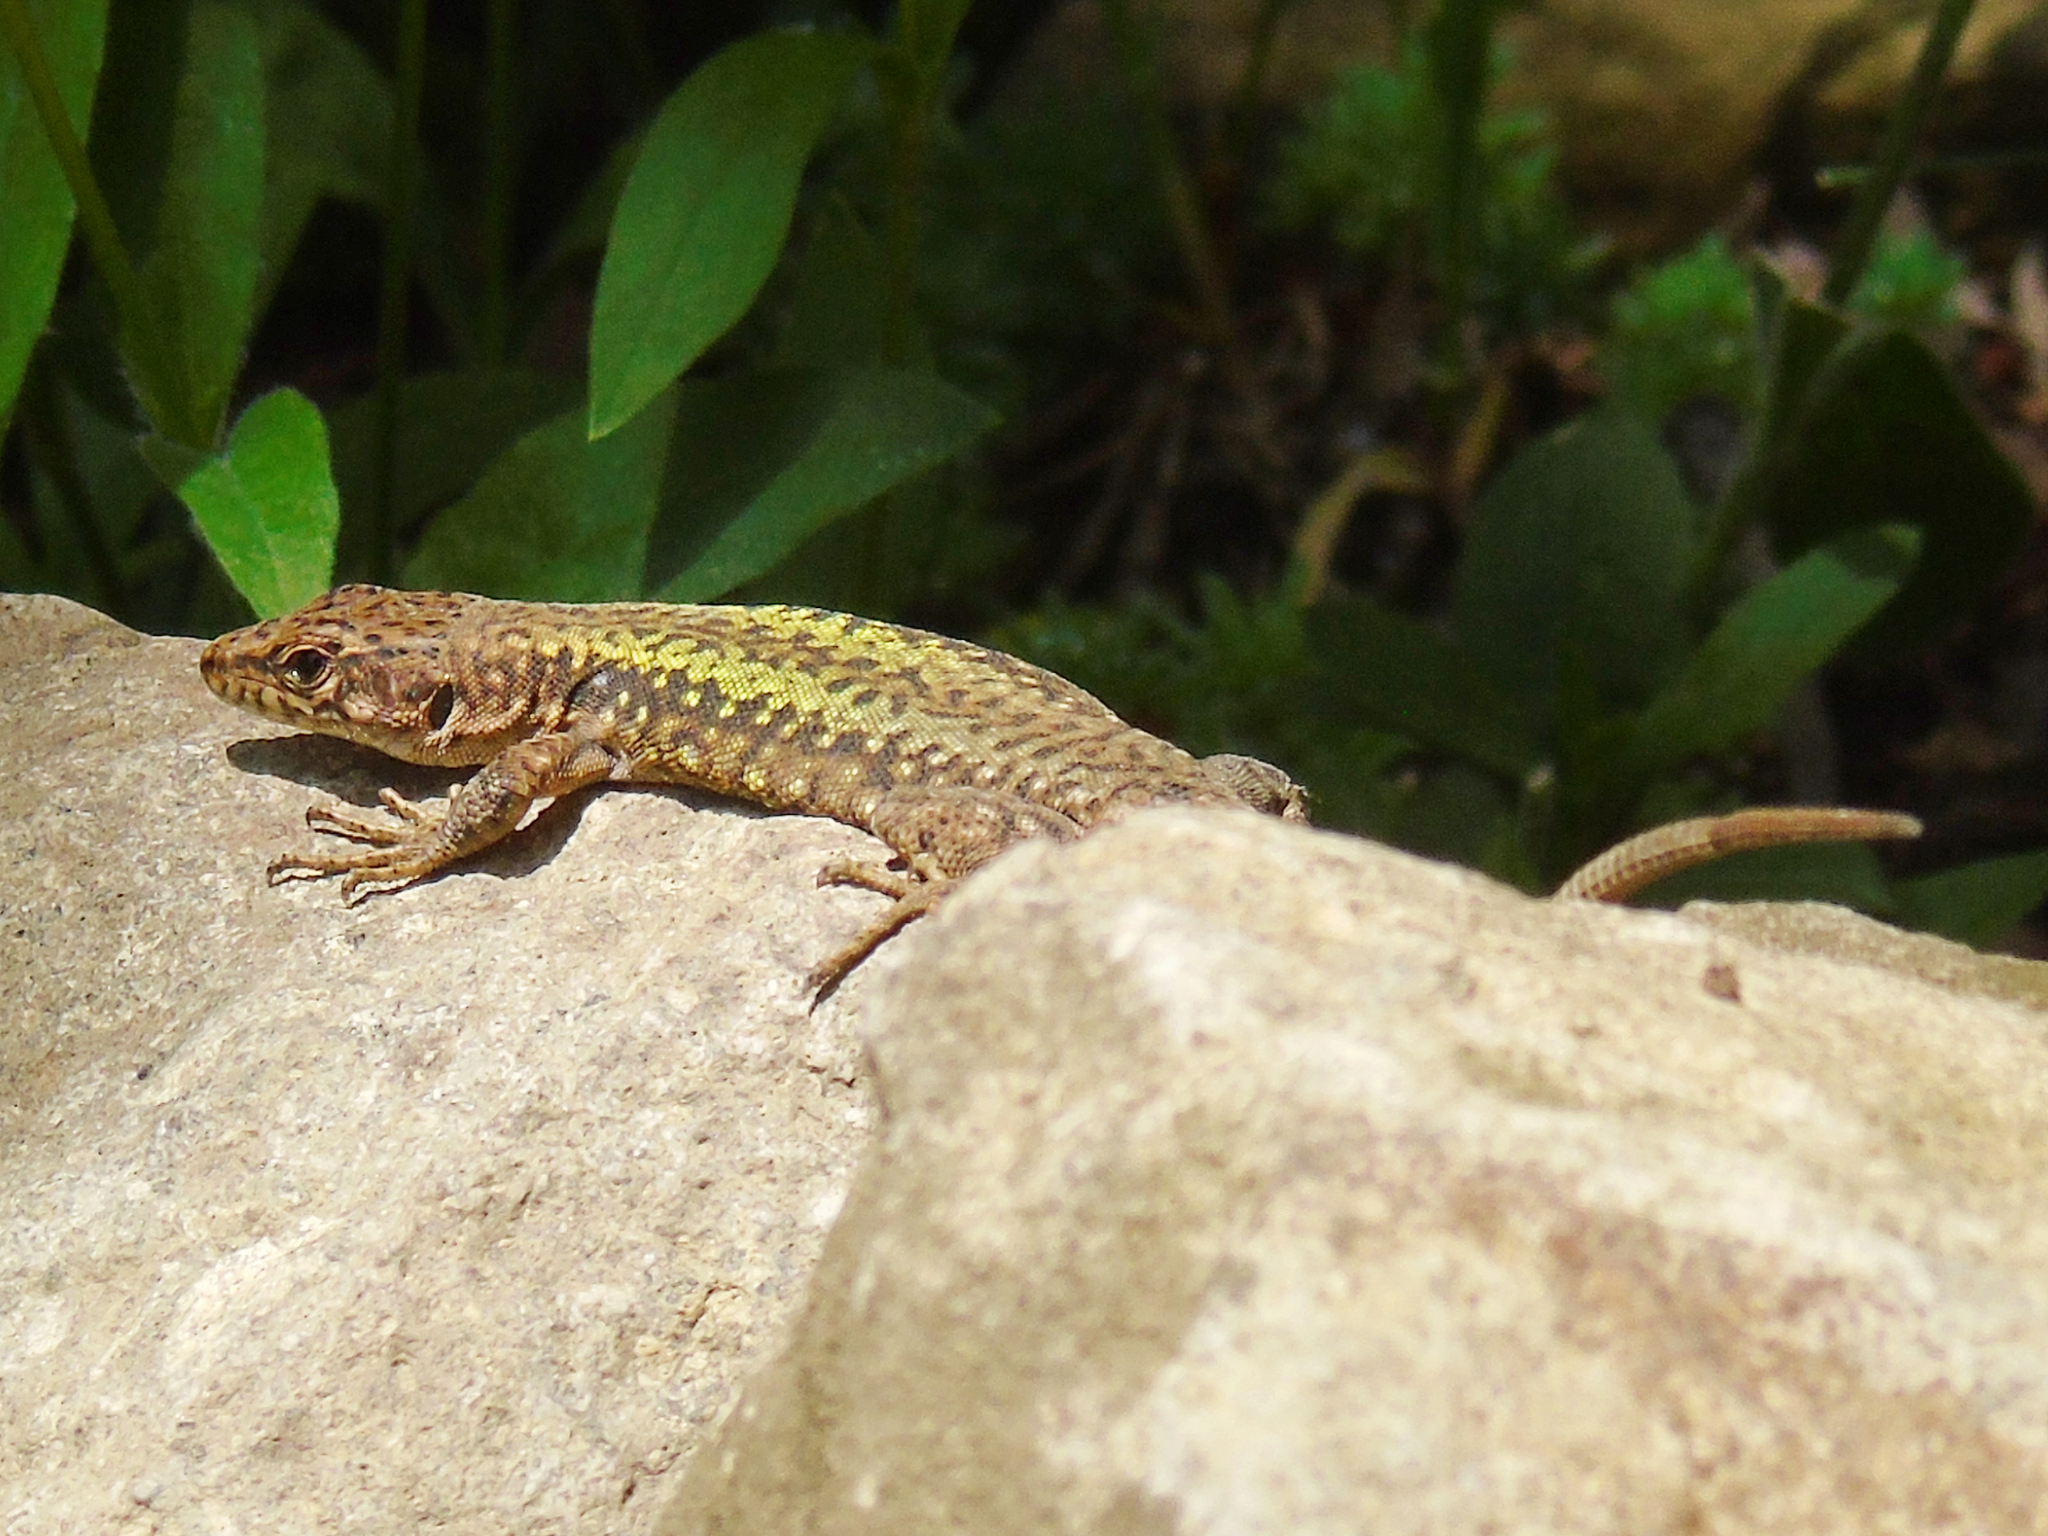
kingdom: Animalia
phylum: Chordata
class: Squamata
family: Lacertidae
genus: Darevskia
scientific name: Darevskia rudis
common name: Spiny-tailed lizard
